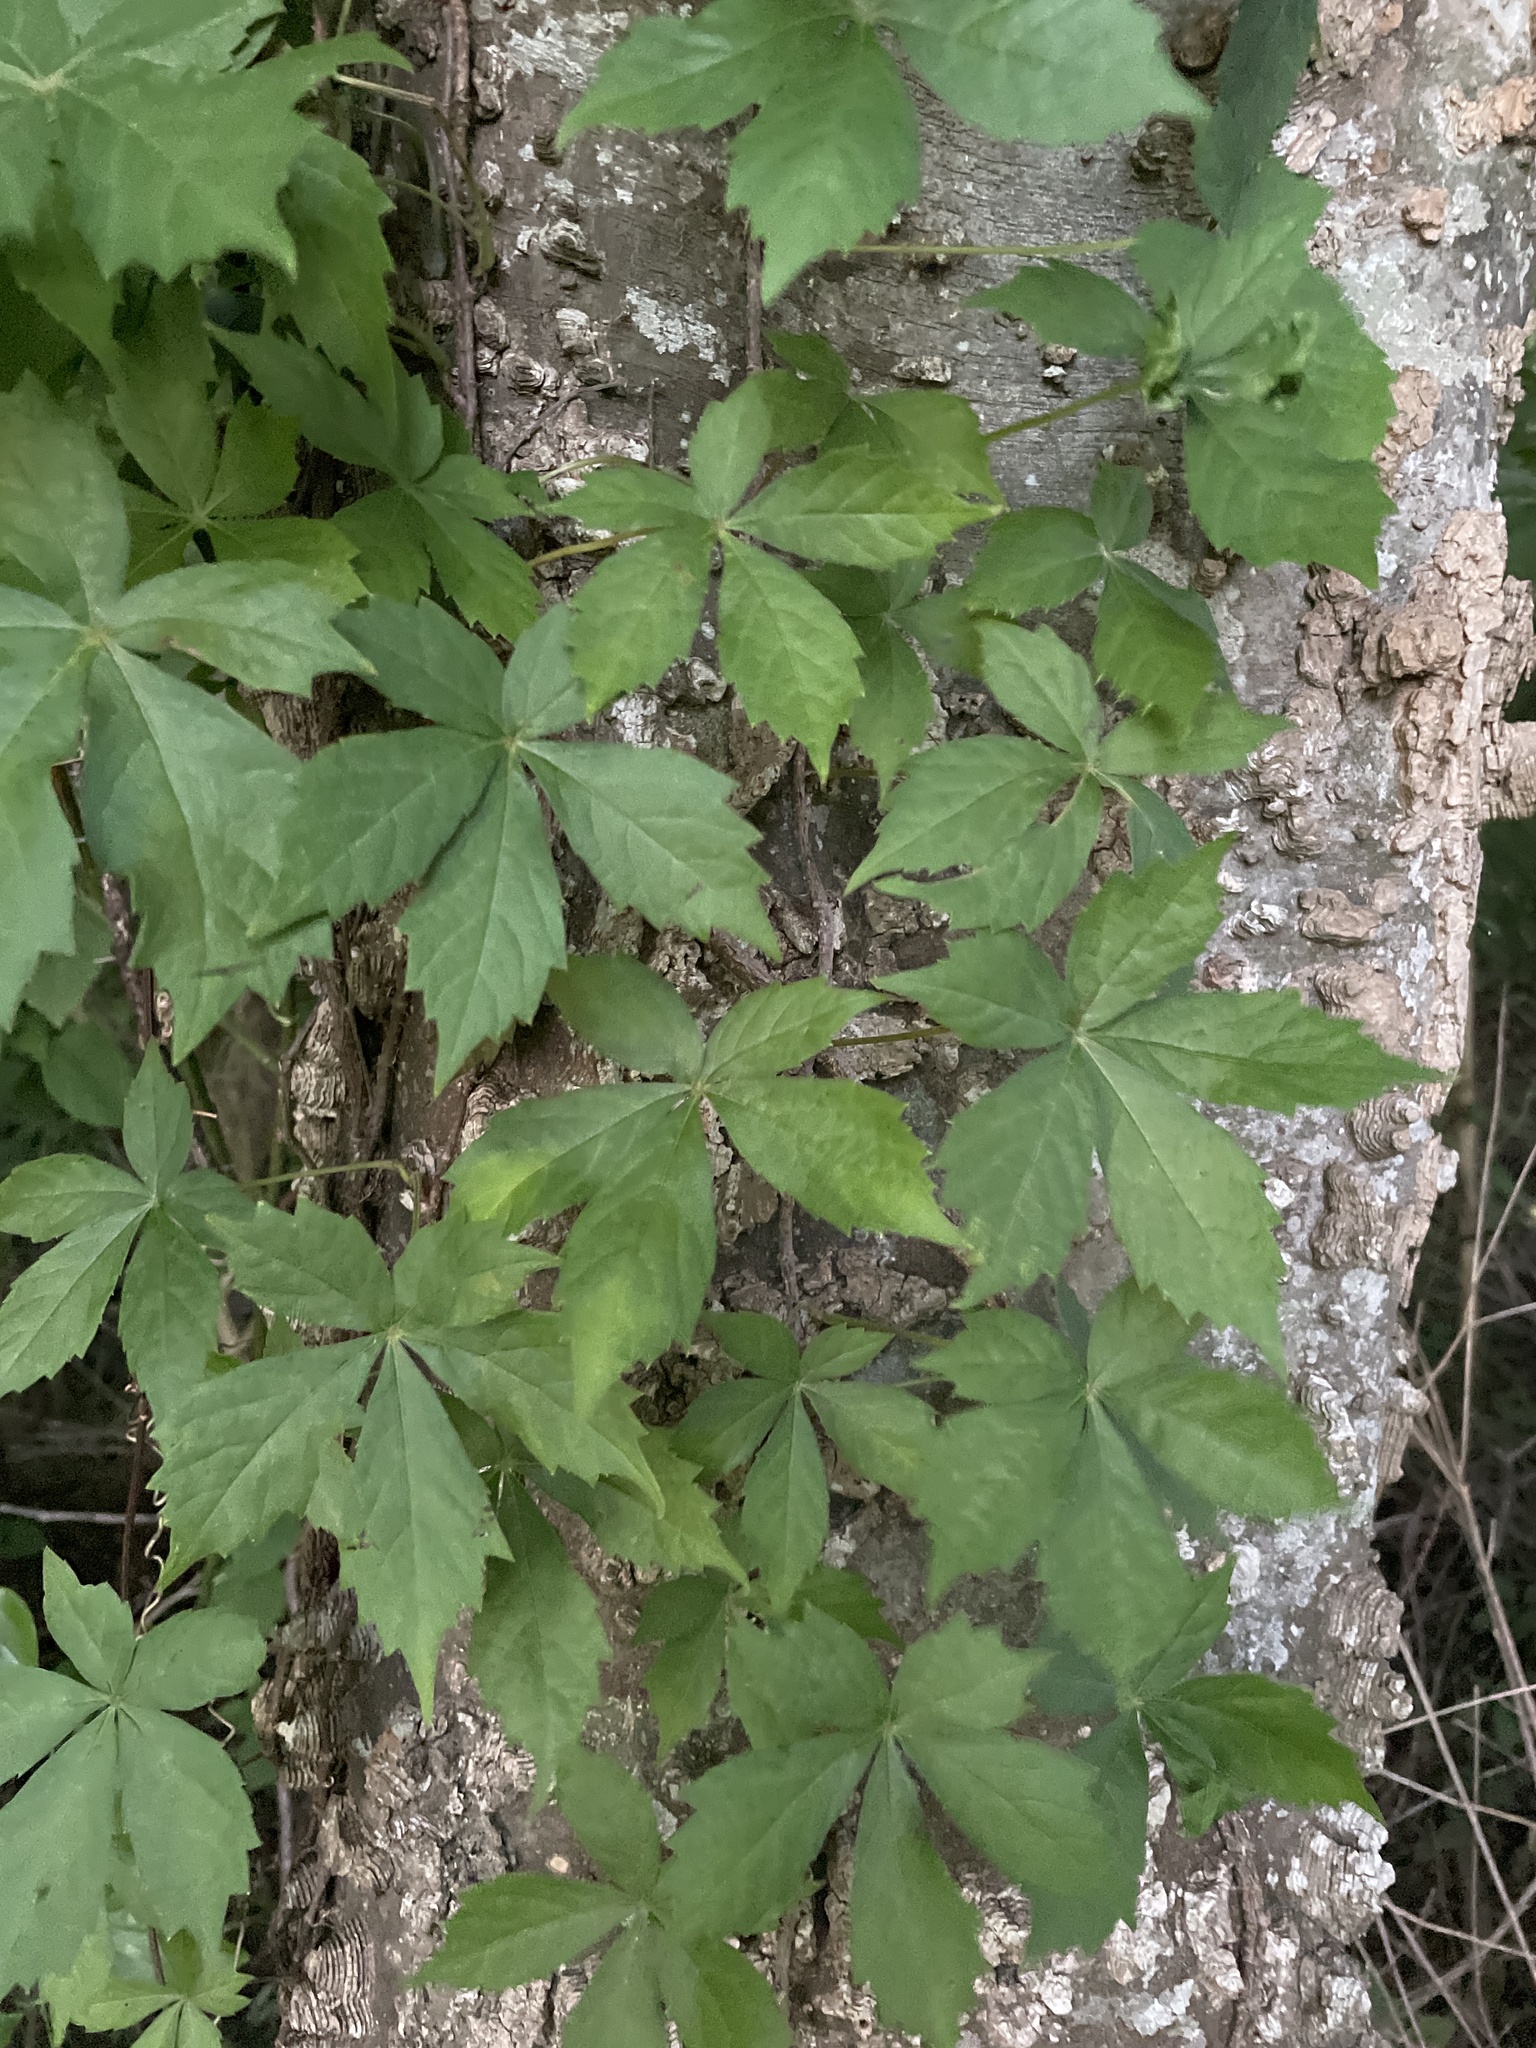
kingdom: Plantae
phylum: Tracheophyta
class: Magnoliopsida
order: Vitales
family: Vitaceae
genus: Parthenocissus
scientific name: Parthenocissus quinquefolia
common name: Virginia-creeper
